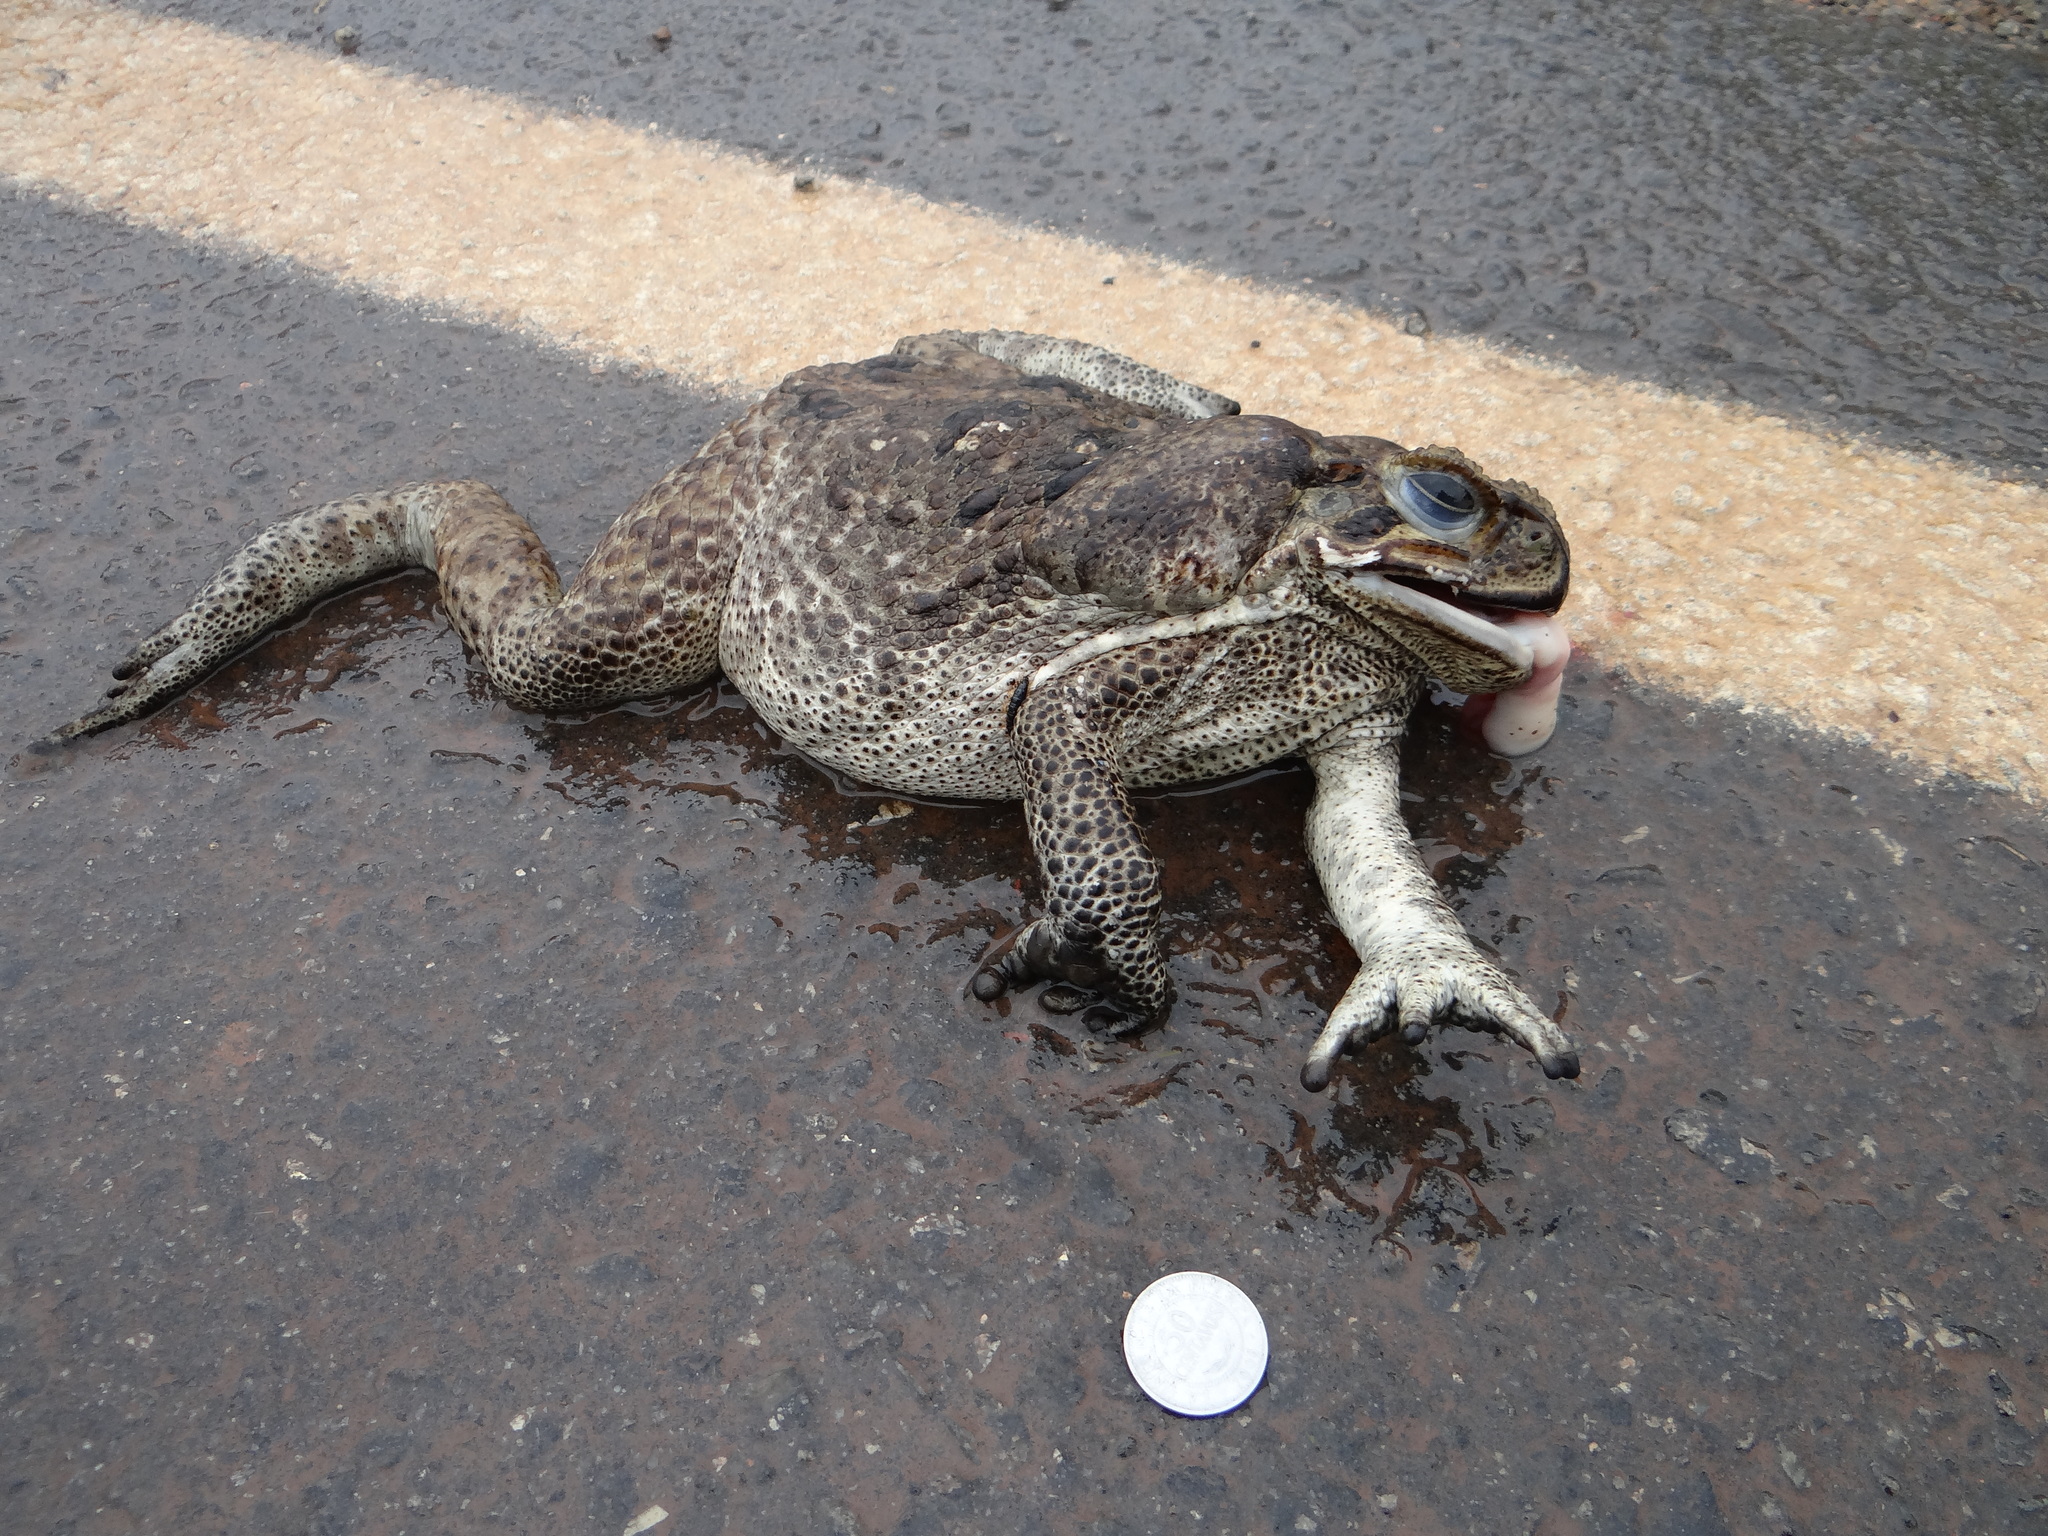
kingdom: Animalia
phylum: Chordata
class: Amphibia
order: Anura
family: Bufonidae
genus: Rhinella
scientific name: Rhinella diptycha
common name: Cope's toad
